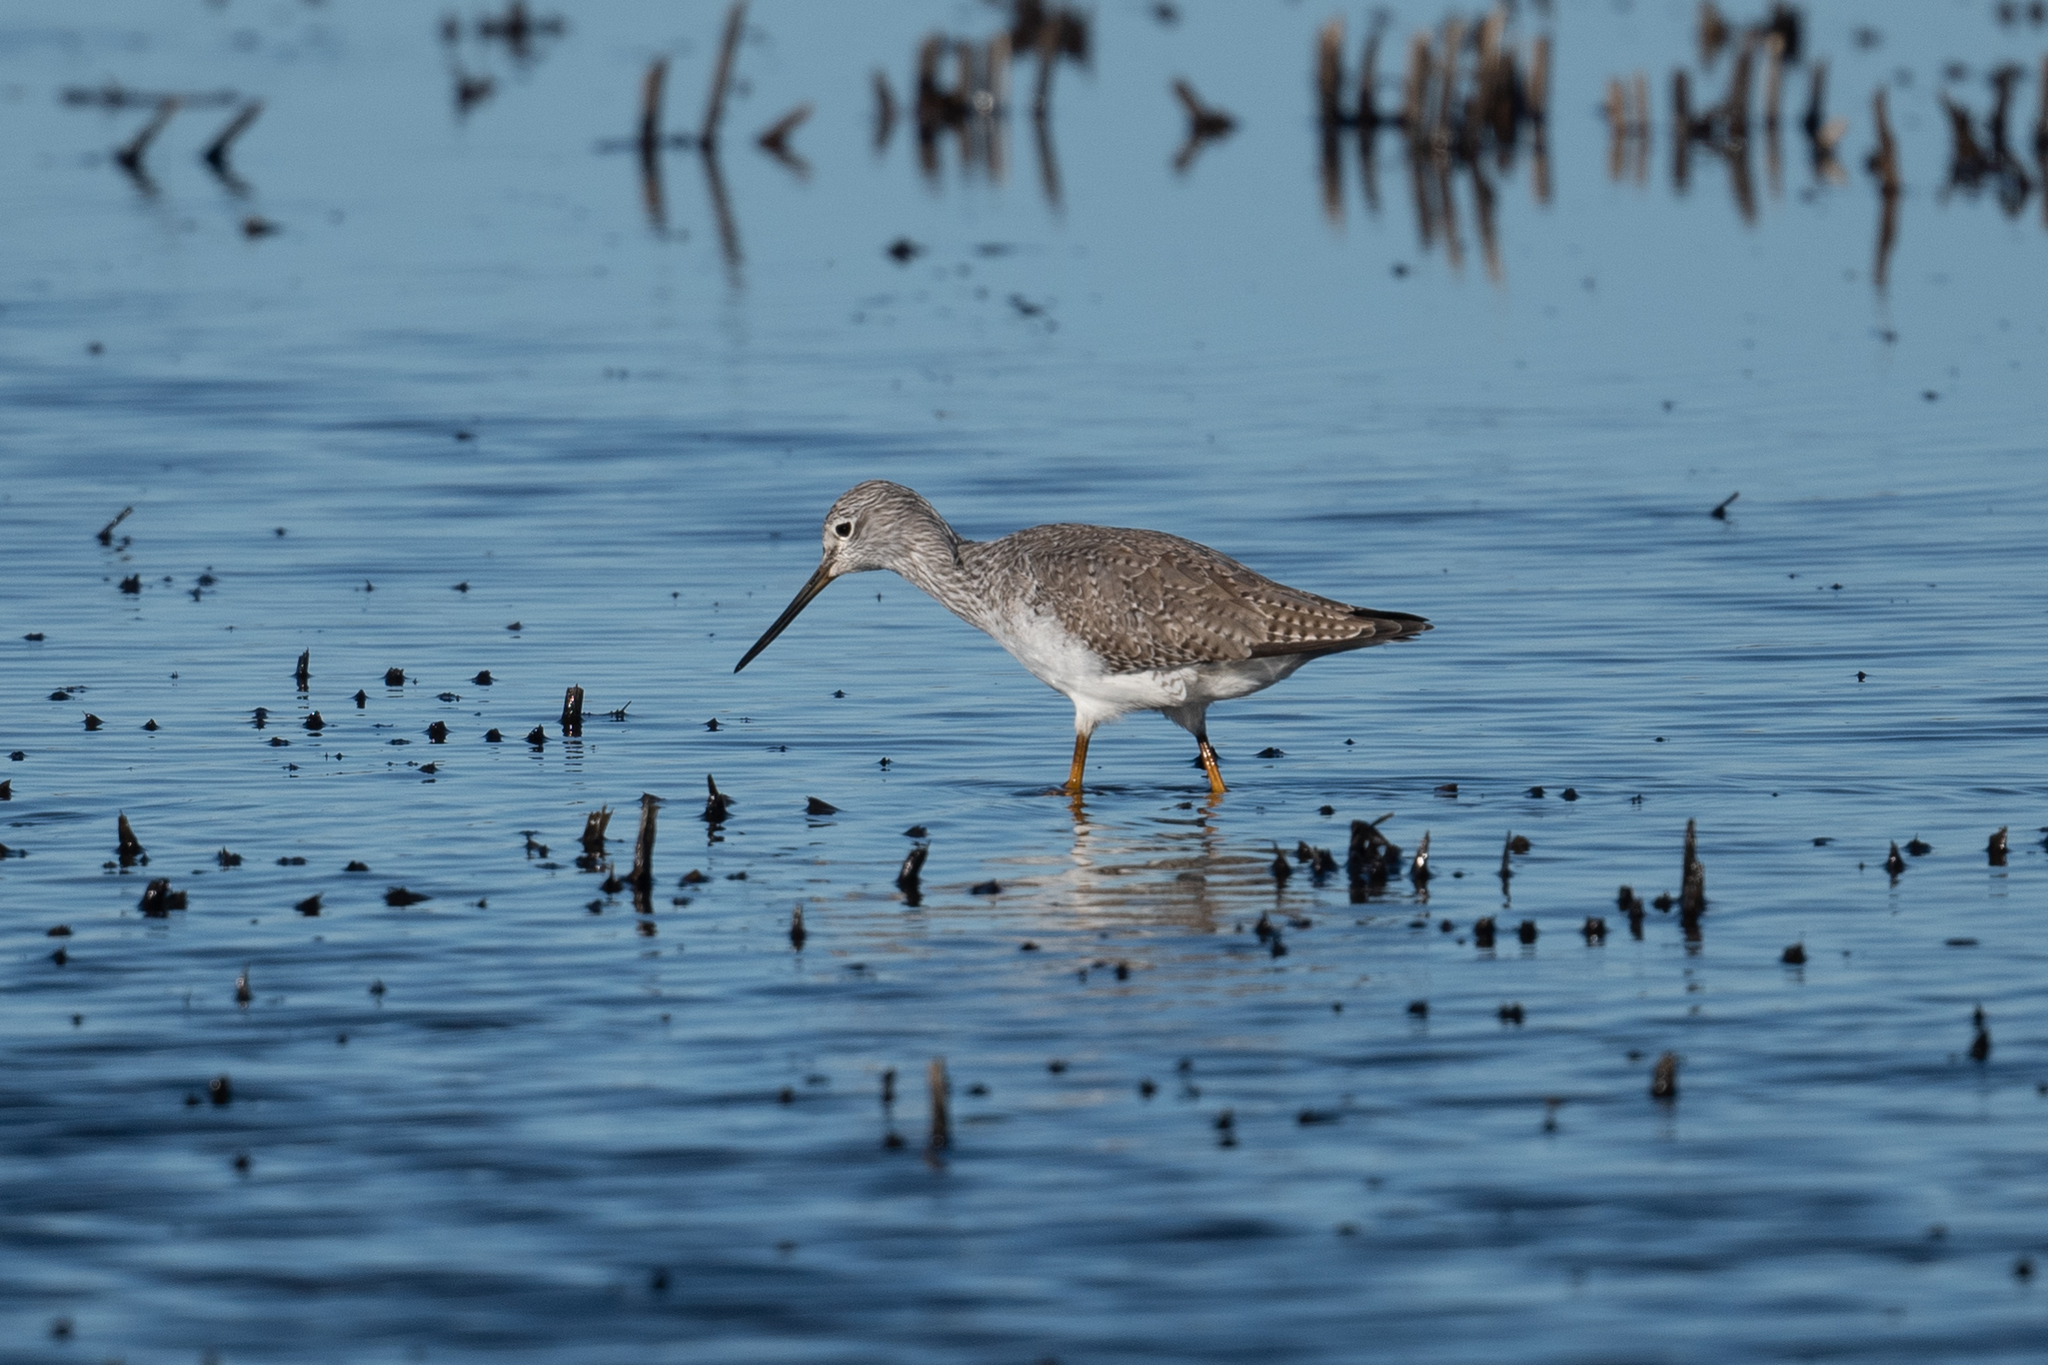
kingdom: Animalia
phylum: Chordata
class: Aves
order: Charadriiformes
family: Scolopacidae
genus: Tringa
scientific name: Tringa melanoleuca
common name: Greater yellowlegs
